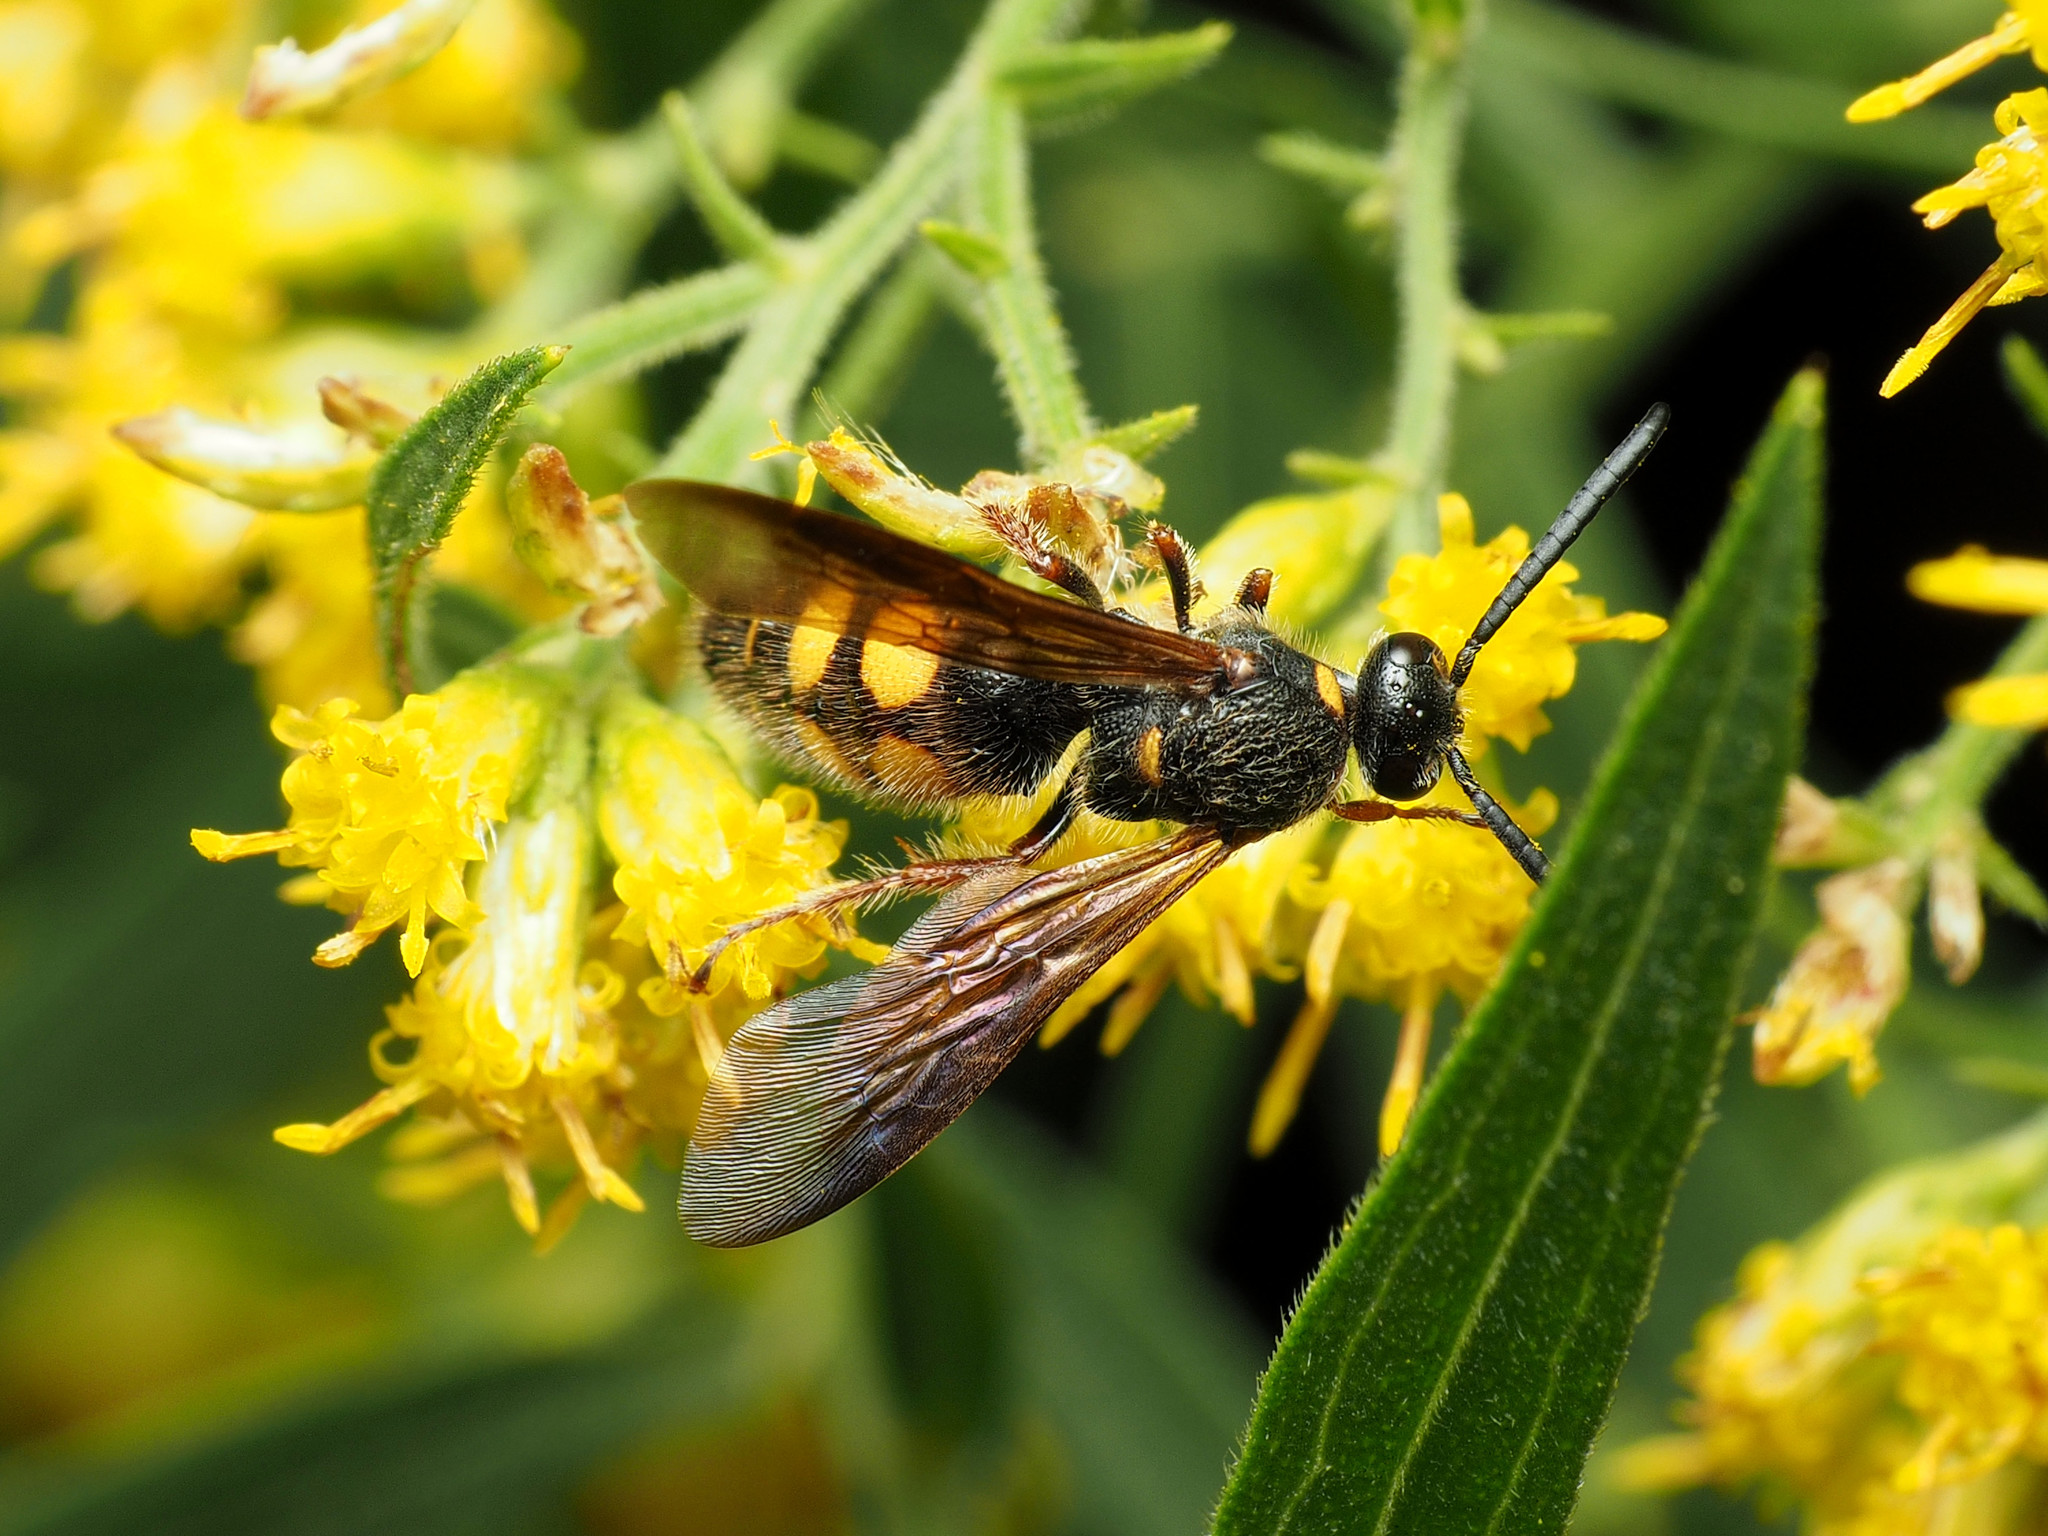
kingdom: Animalia
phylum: Arthropoda
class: Insecta
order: Hymenoptera
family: Scoliidae
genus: Scolia
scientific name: Scolia nobilitata
